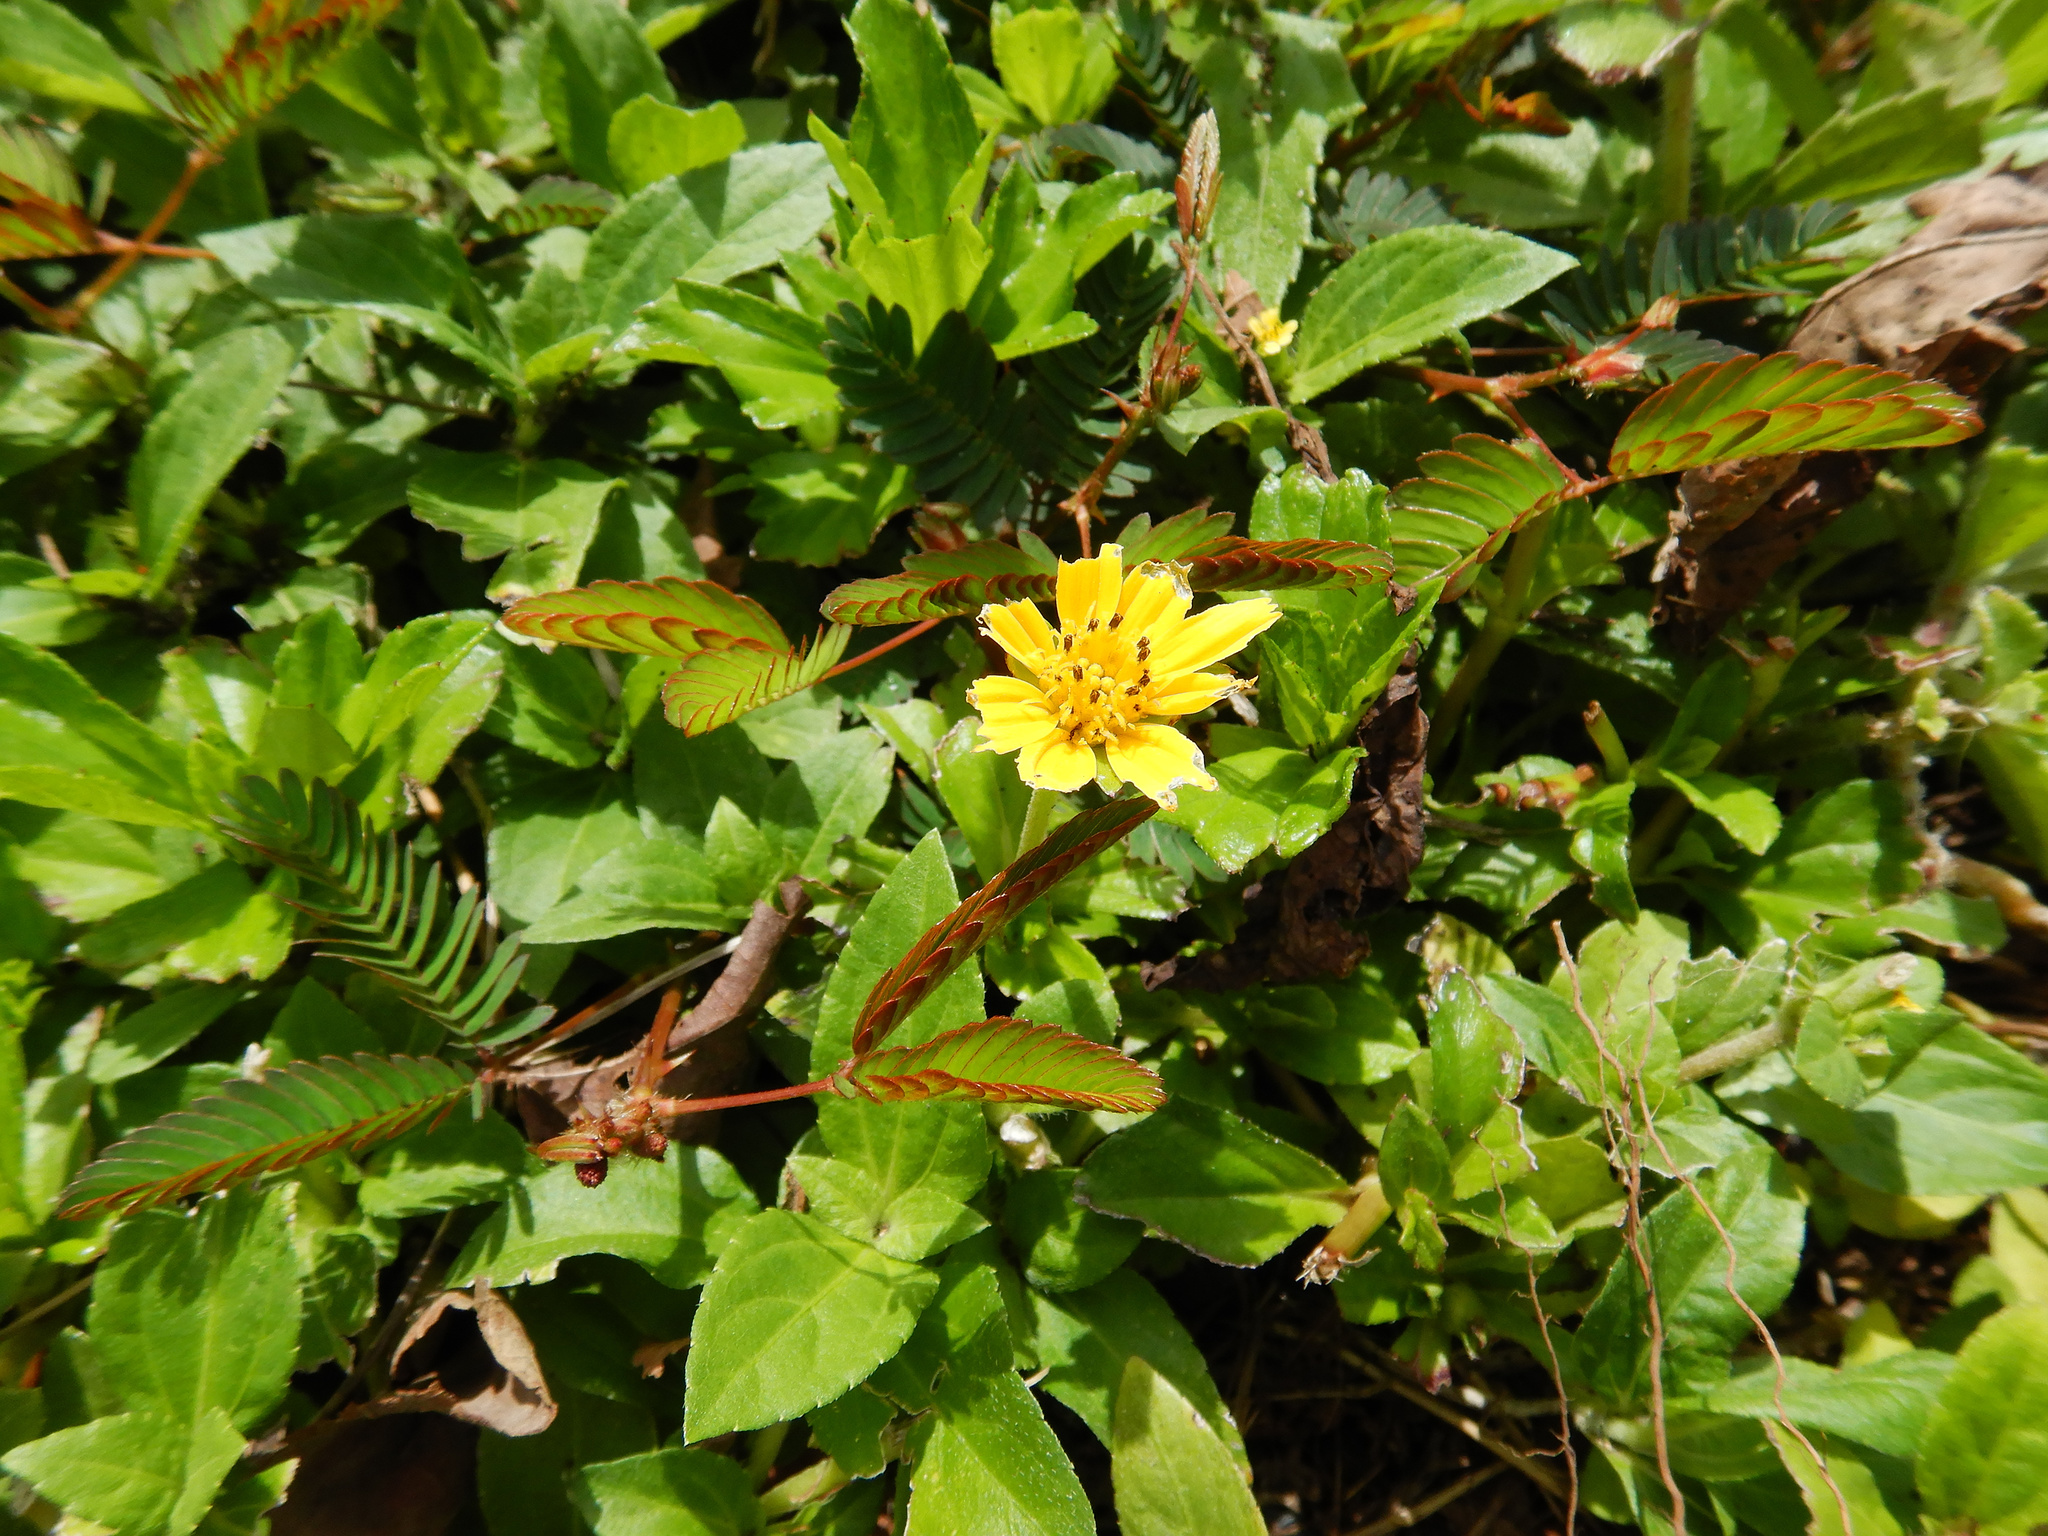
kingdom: Plantae
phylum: Tracheophyta
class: Magnoliopsida
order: Asterales
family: Asteraceae
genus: Sphagneticola
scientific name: Sphagneticola trilobata
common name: Bay biscayne creeping-oxeye
